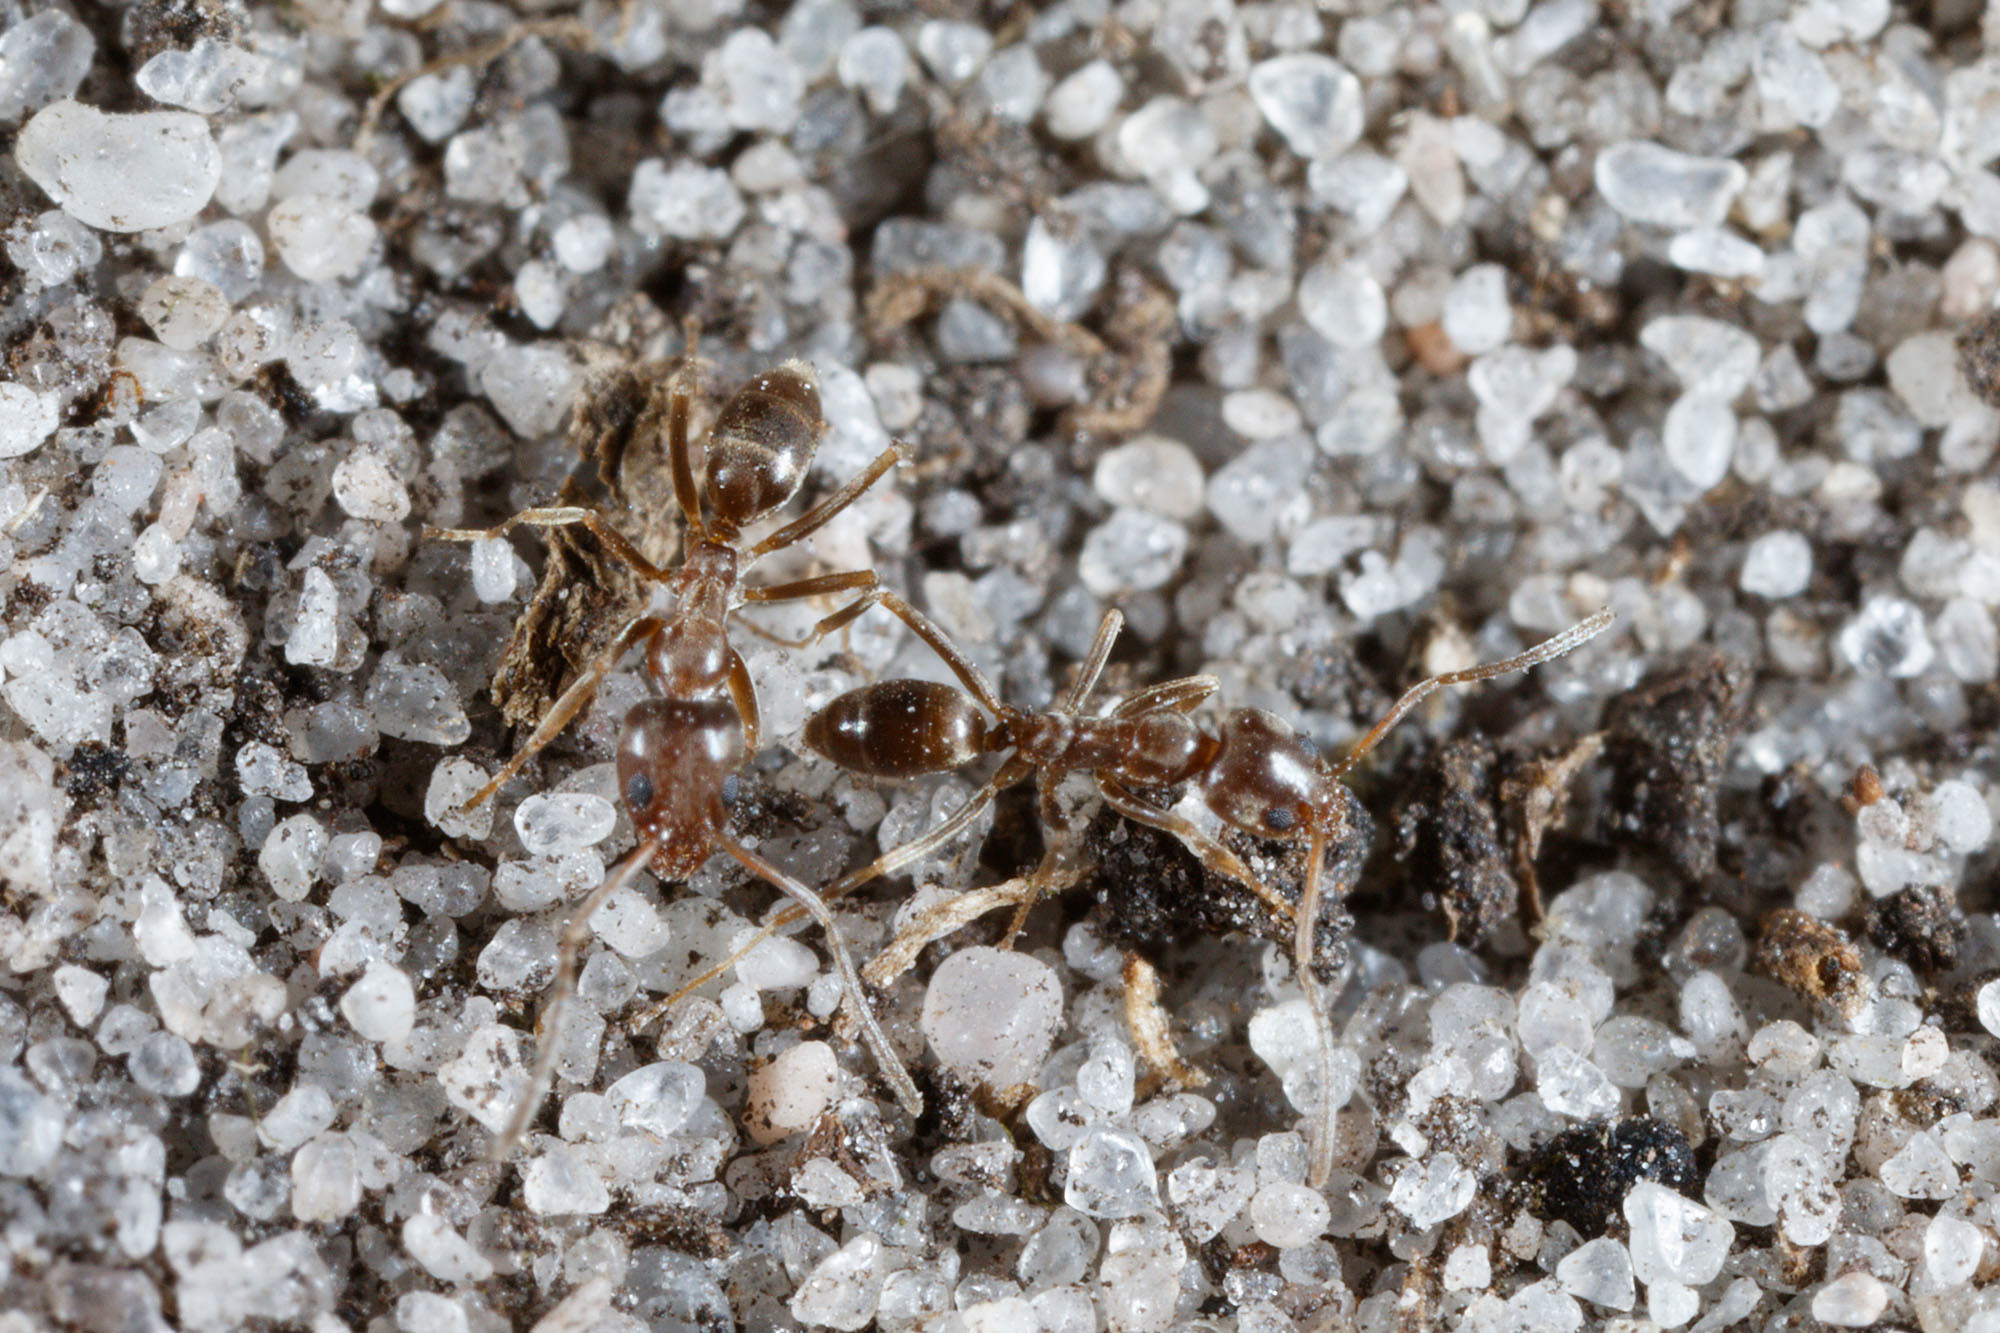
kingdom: Animalia
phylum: Arthropoda
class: Insecta
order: Hymenoptera
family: Formicidae
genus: Linepithema
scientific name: Linepithema humile
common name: Argentine ant
